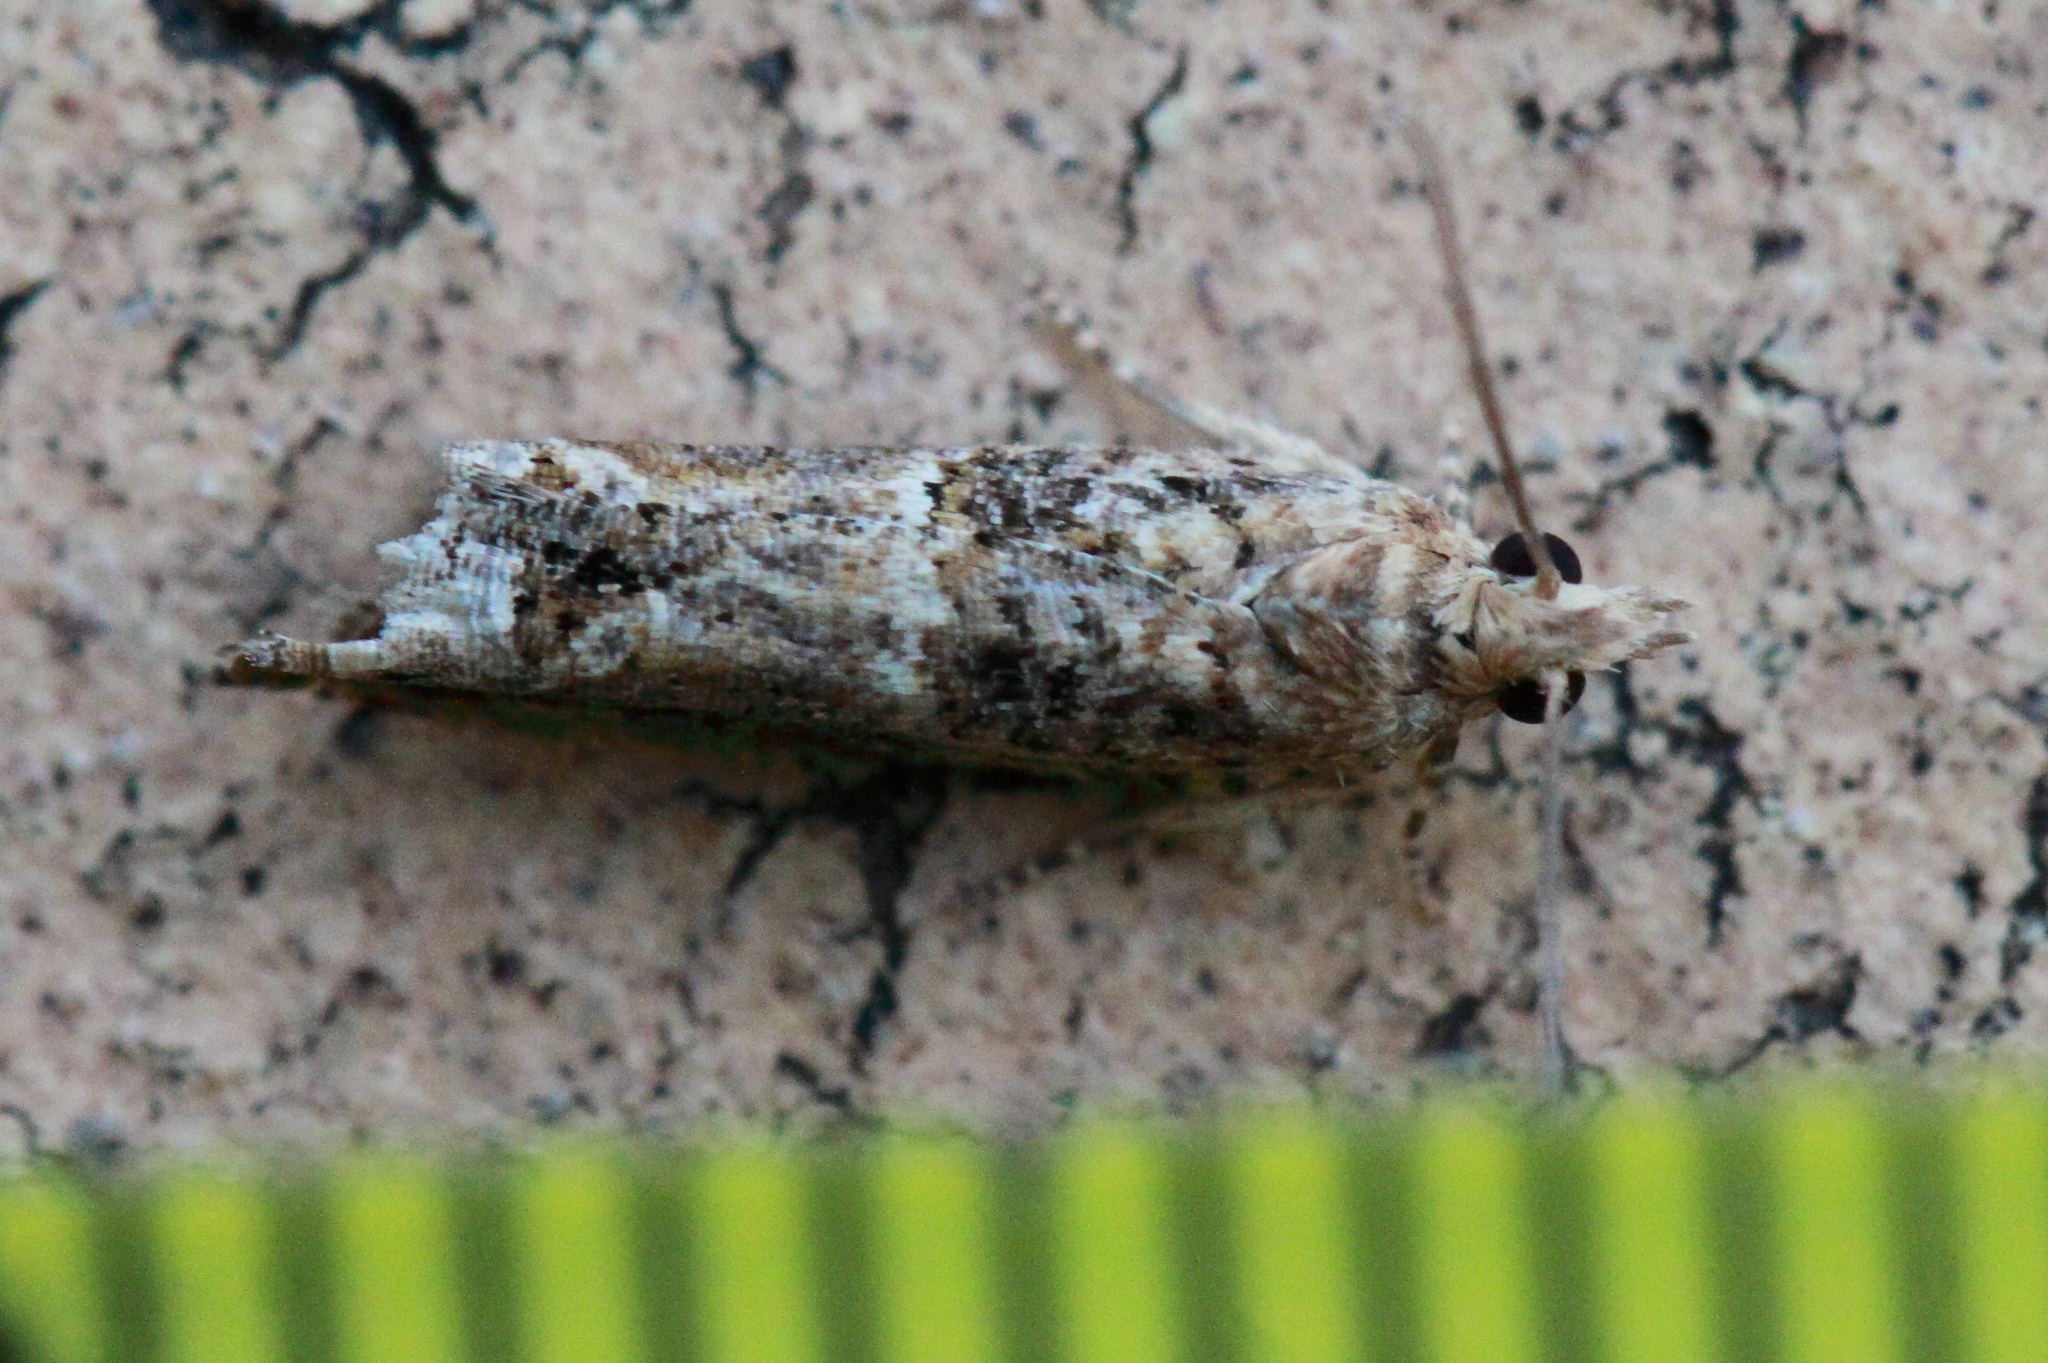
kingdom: Animalia
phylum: Arthropoda
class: Insecta
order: Lepidoptera
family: Tortricidae
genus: Crocidosema
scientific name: Crocidosema plebejana
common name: Southern bell
